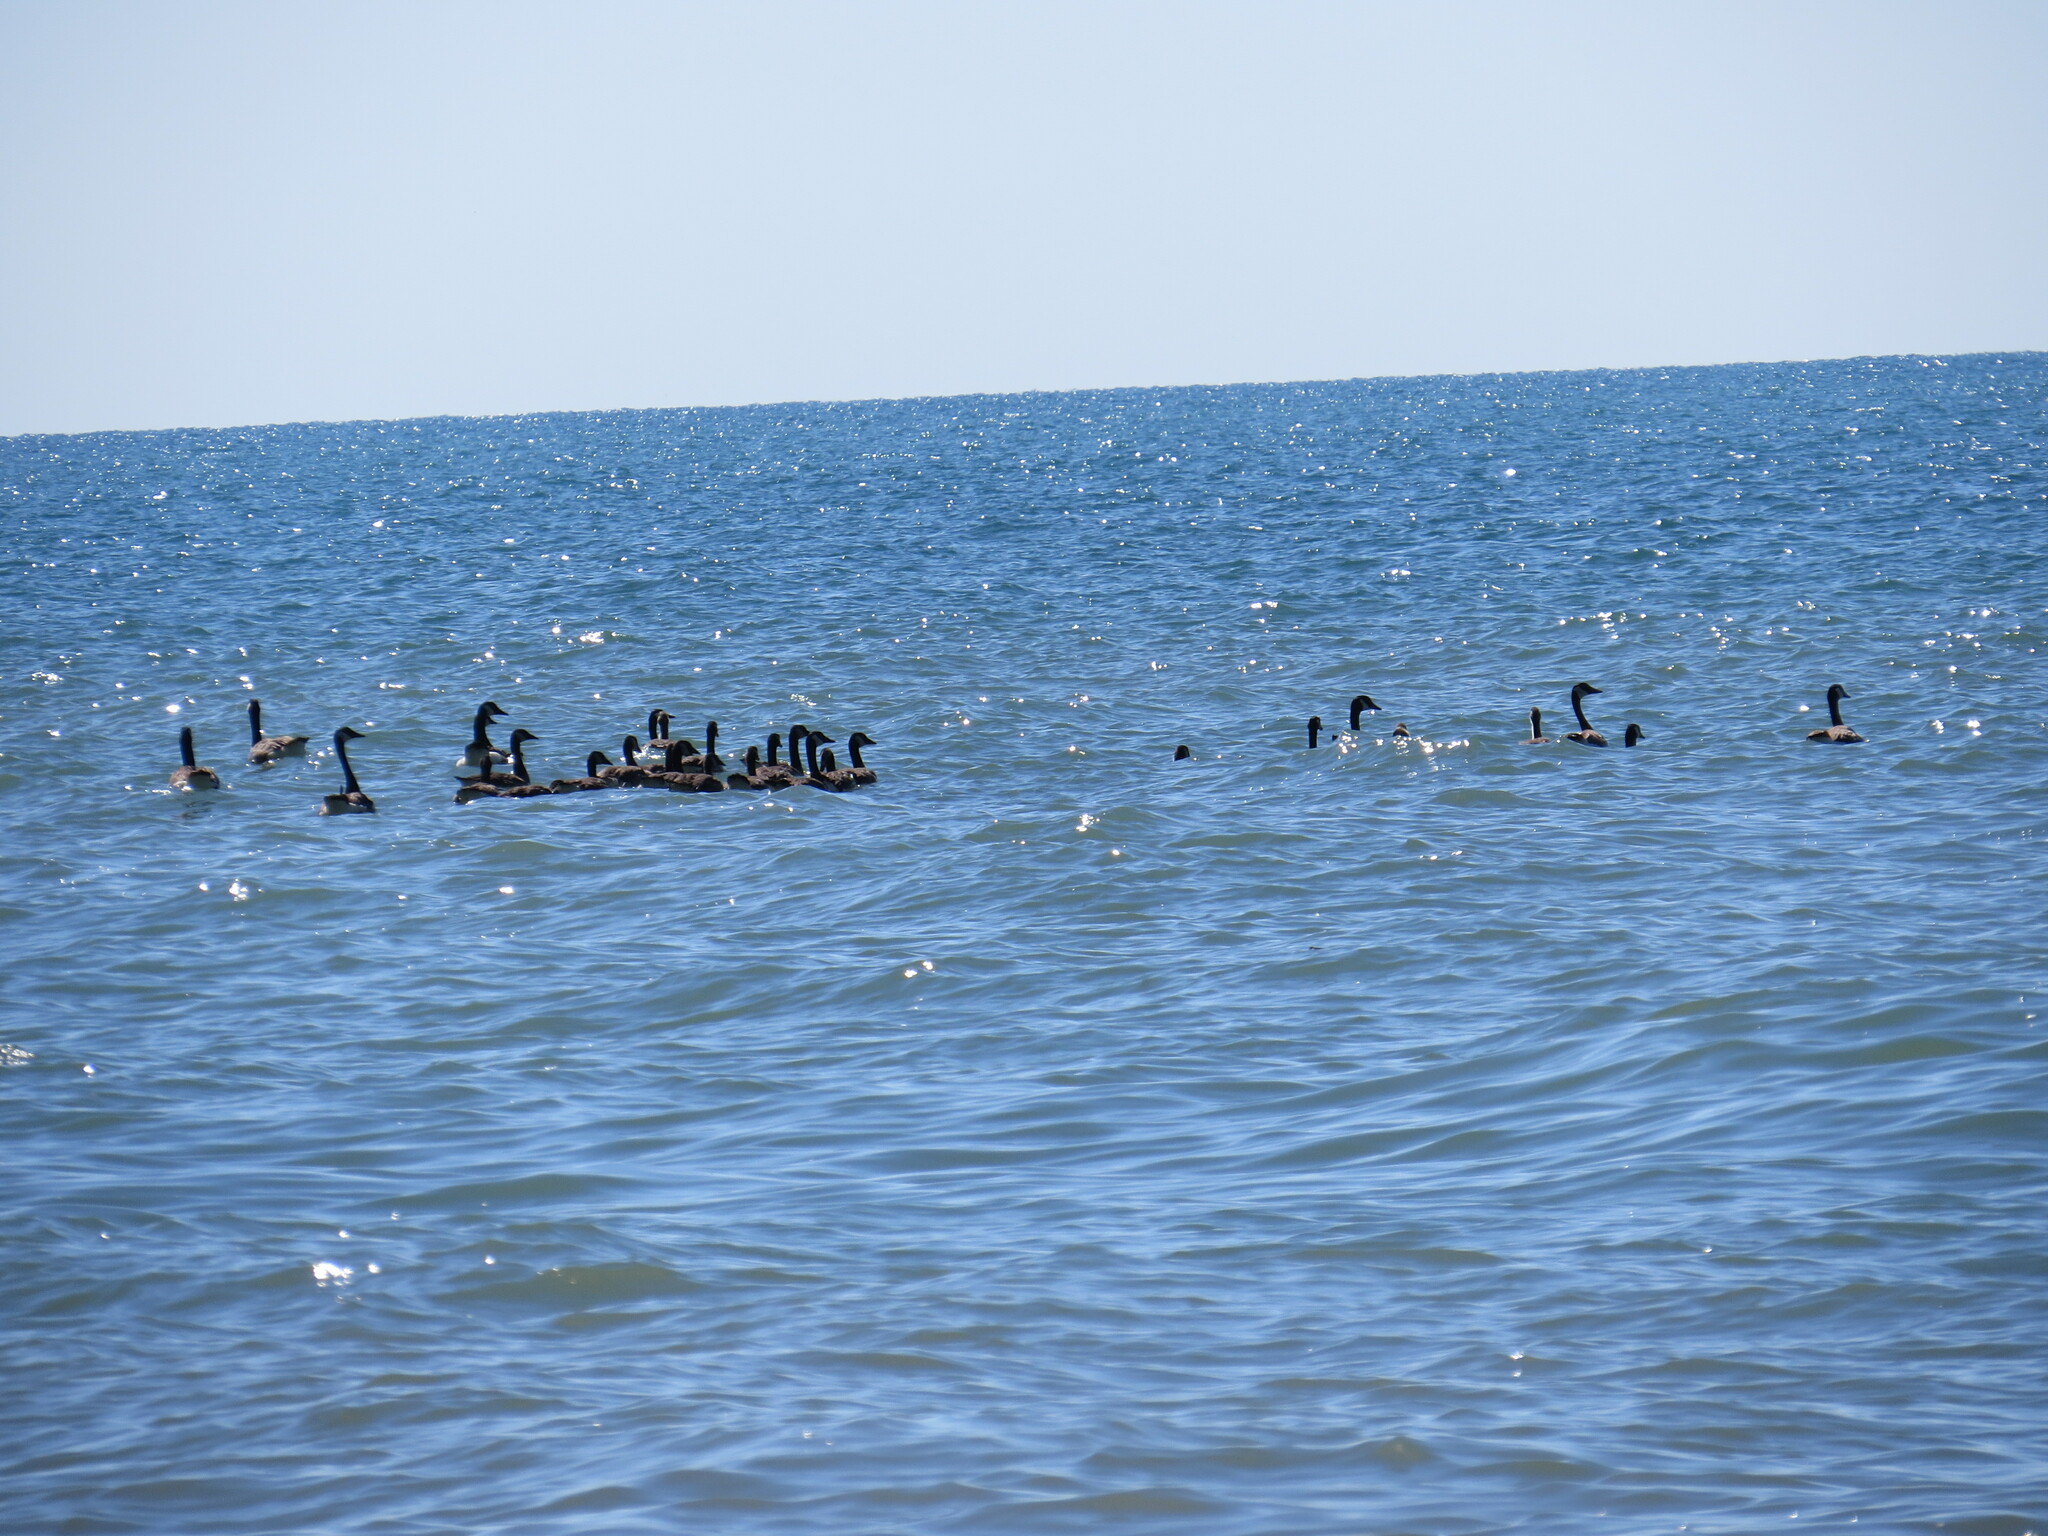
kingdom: Animalia
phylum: Chordata
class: Aves
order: Anseriformes
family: Anatidae
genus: Branta
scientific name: Branta canadensis
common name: Canada goose
